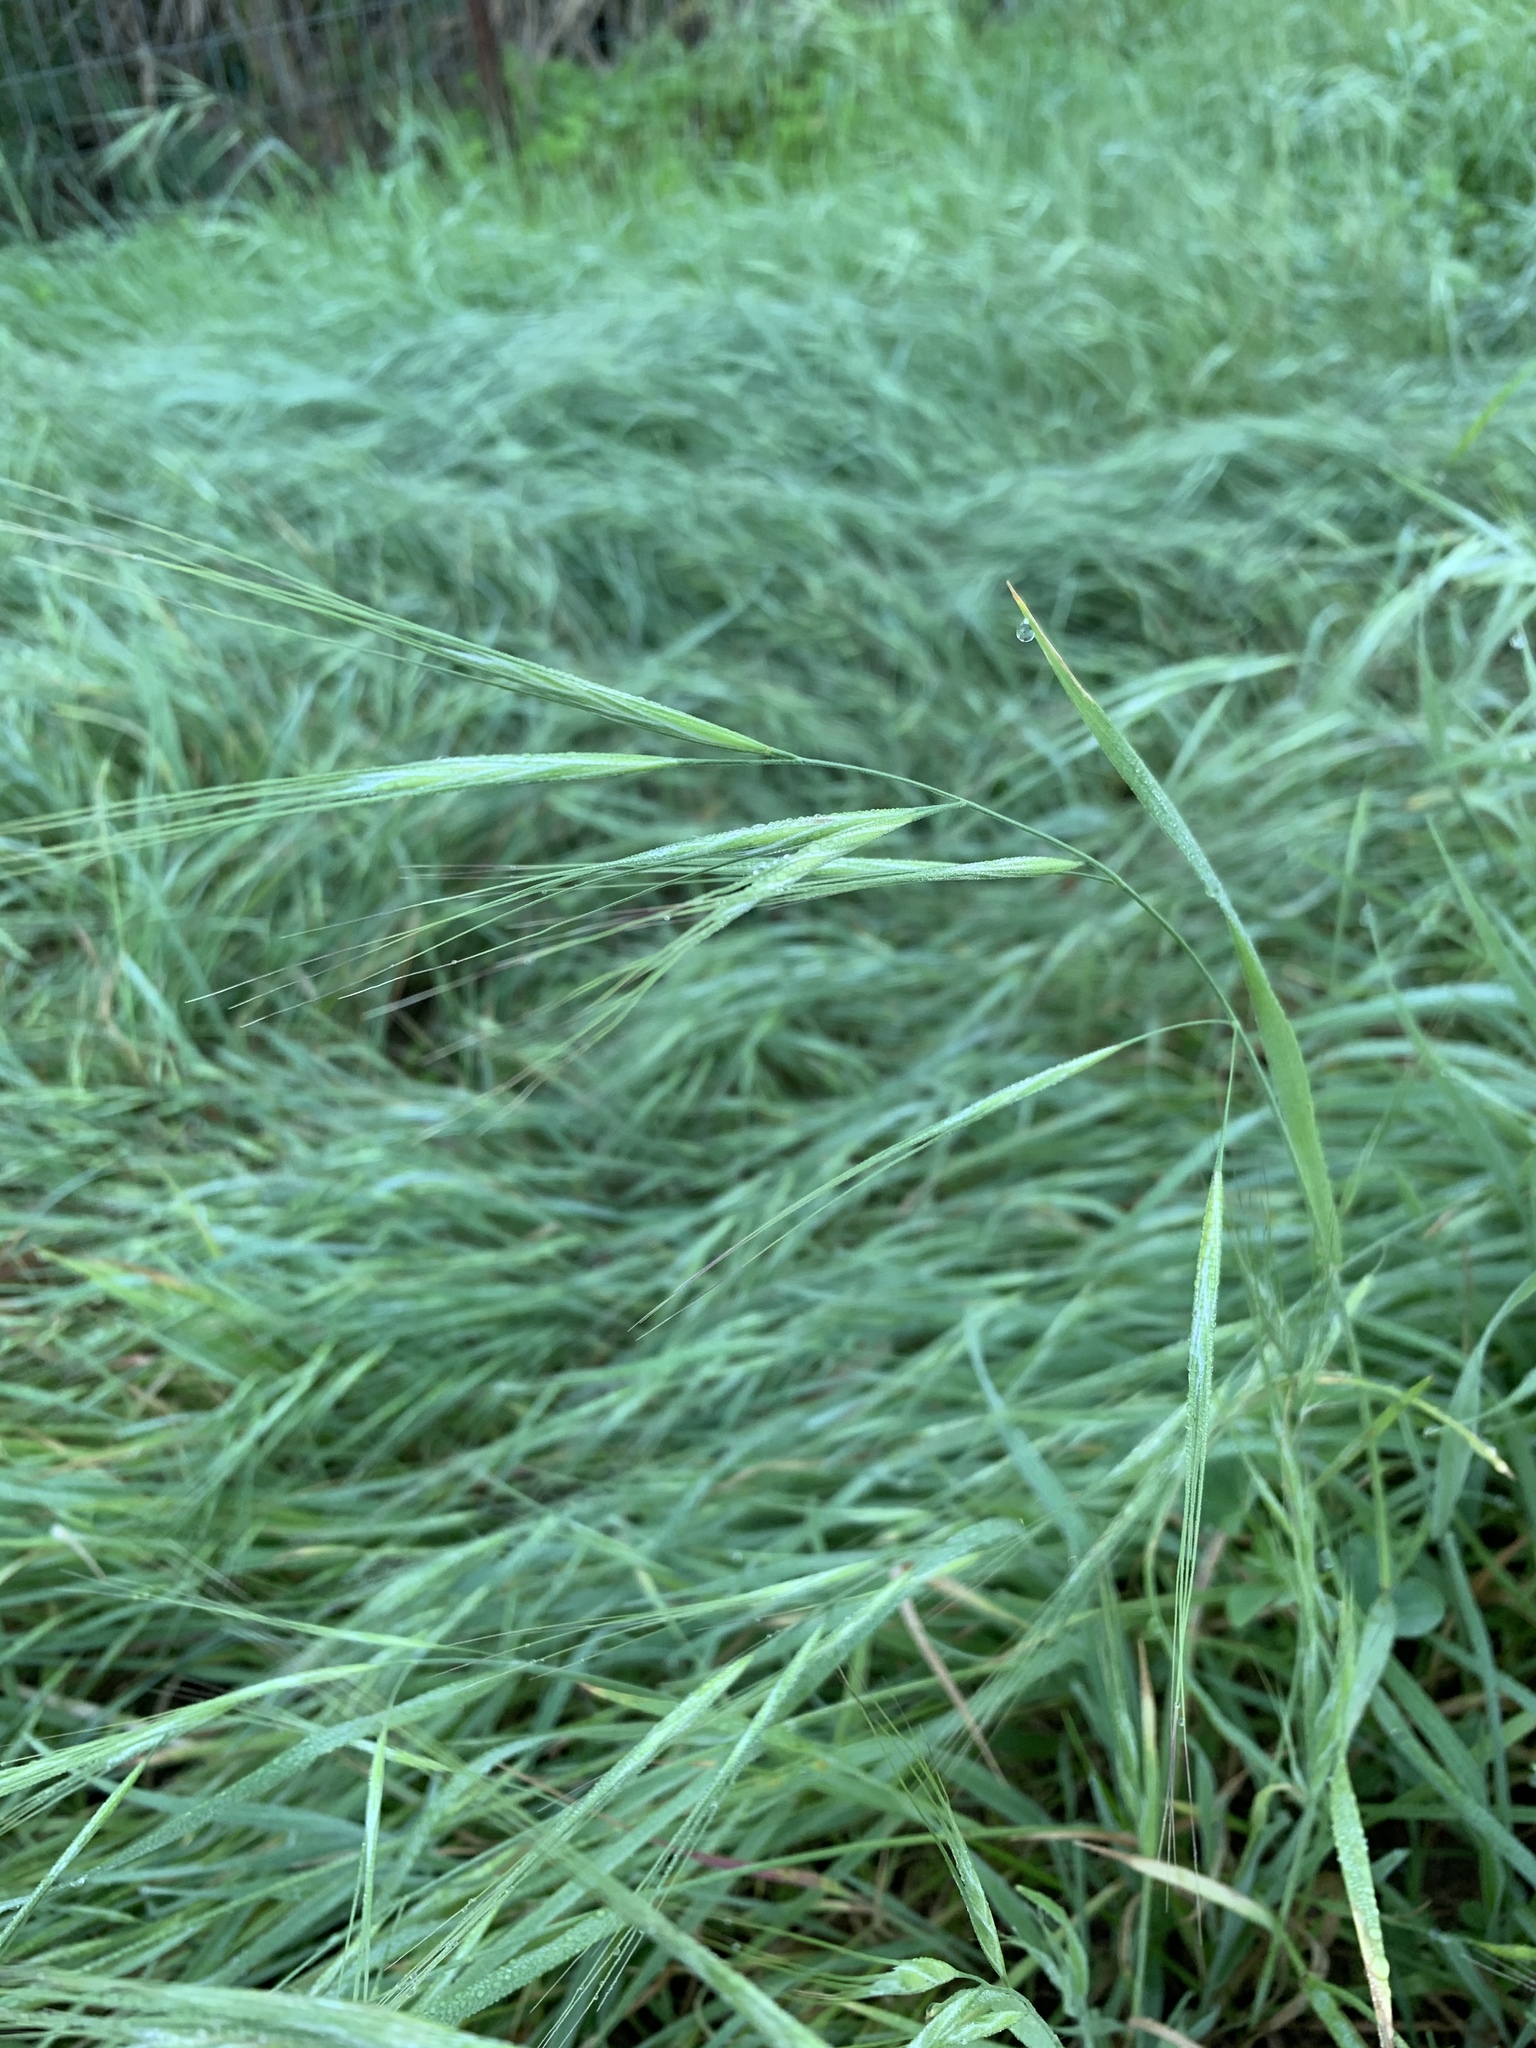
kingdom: Plantae
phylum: Tracheophyta
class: Liliopsida
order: Poales
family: Poaceae
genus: Bromus
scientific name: Bromus diandrus
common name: Ripgut brome
